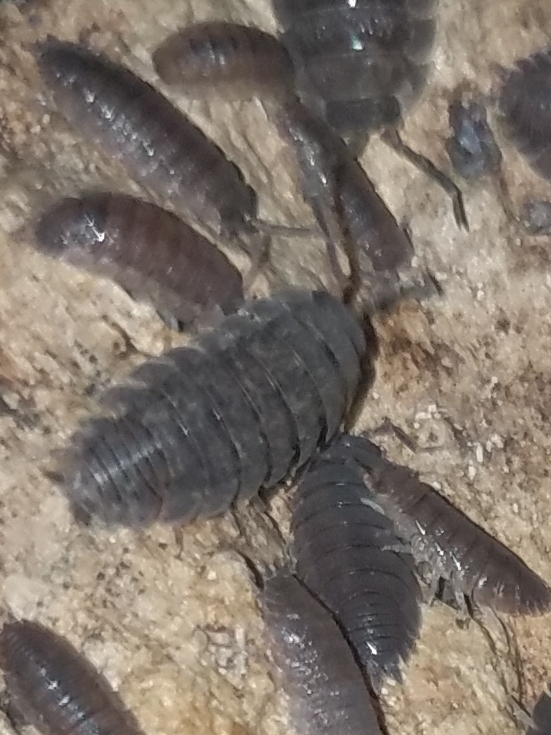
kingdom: Animalia
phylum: Arthropoda
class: Malacostraca
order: Isopoda
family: Porcellionidae
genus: Porcellio
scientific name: Porcellio scaber
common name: Common rough woodlouse
